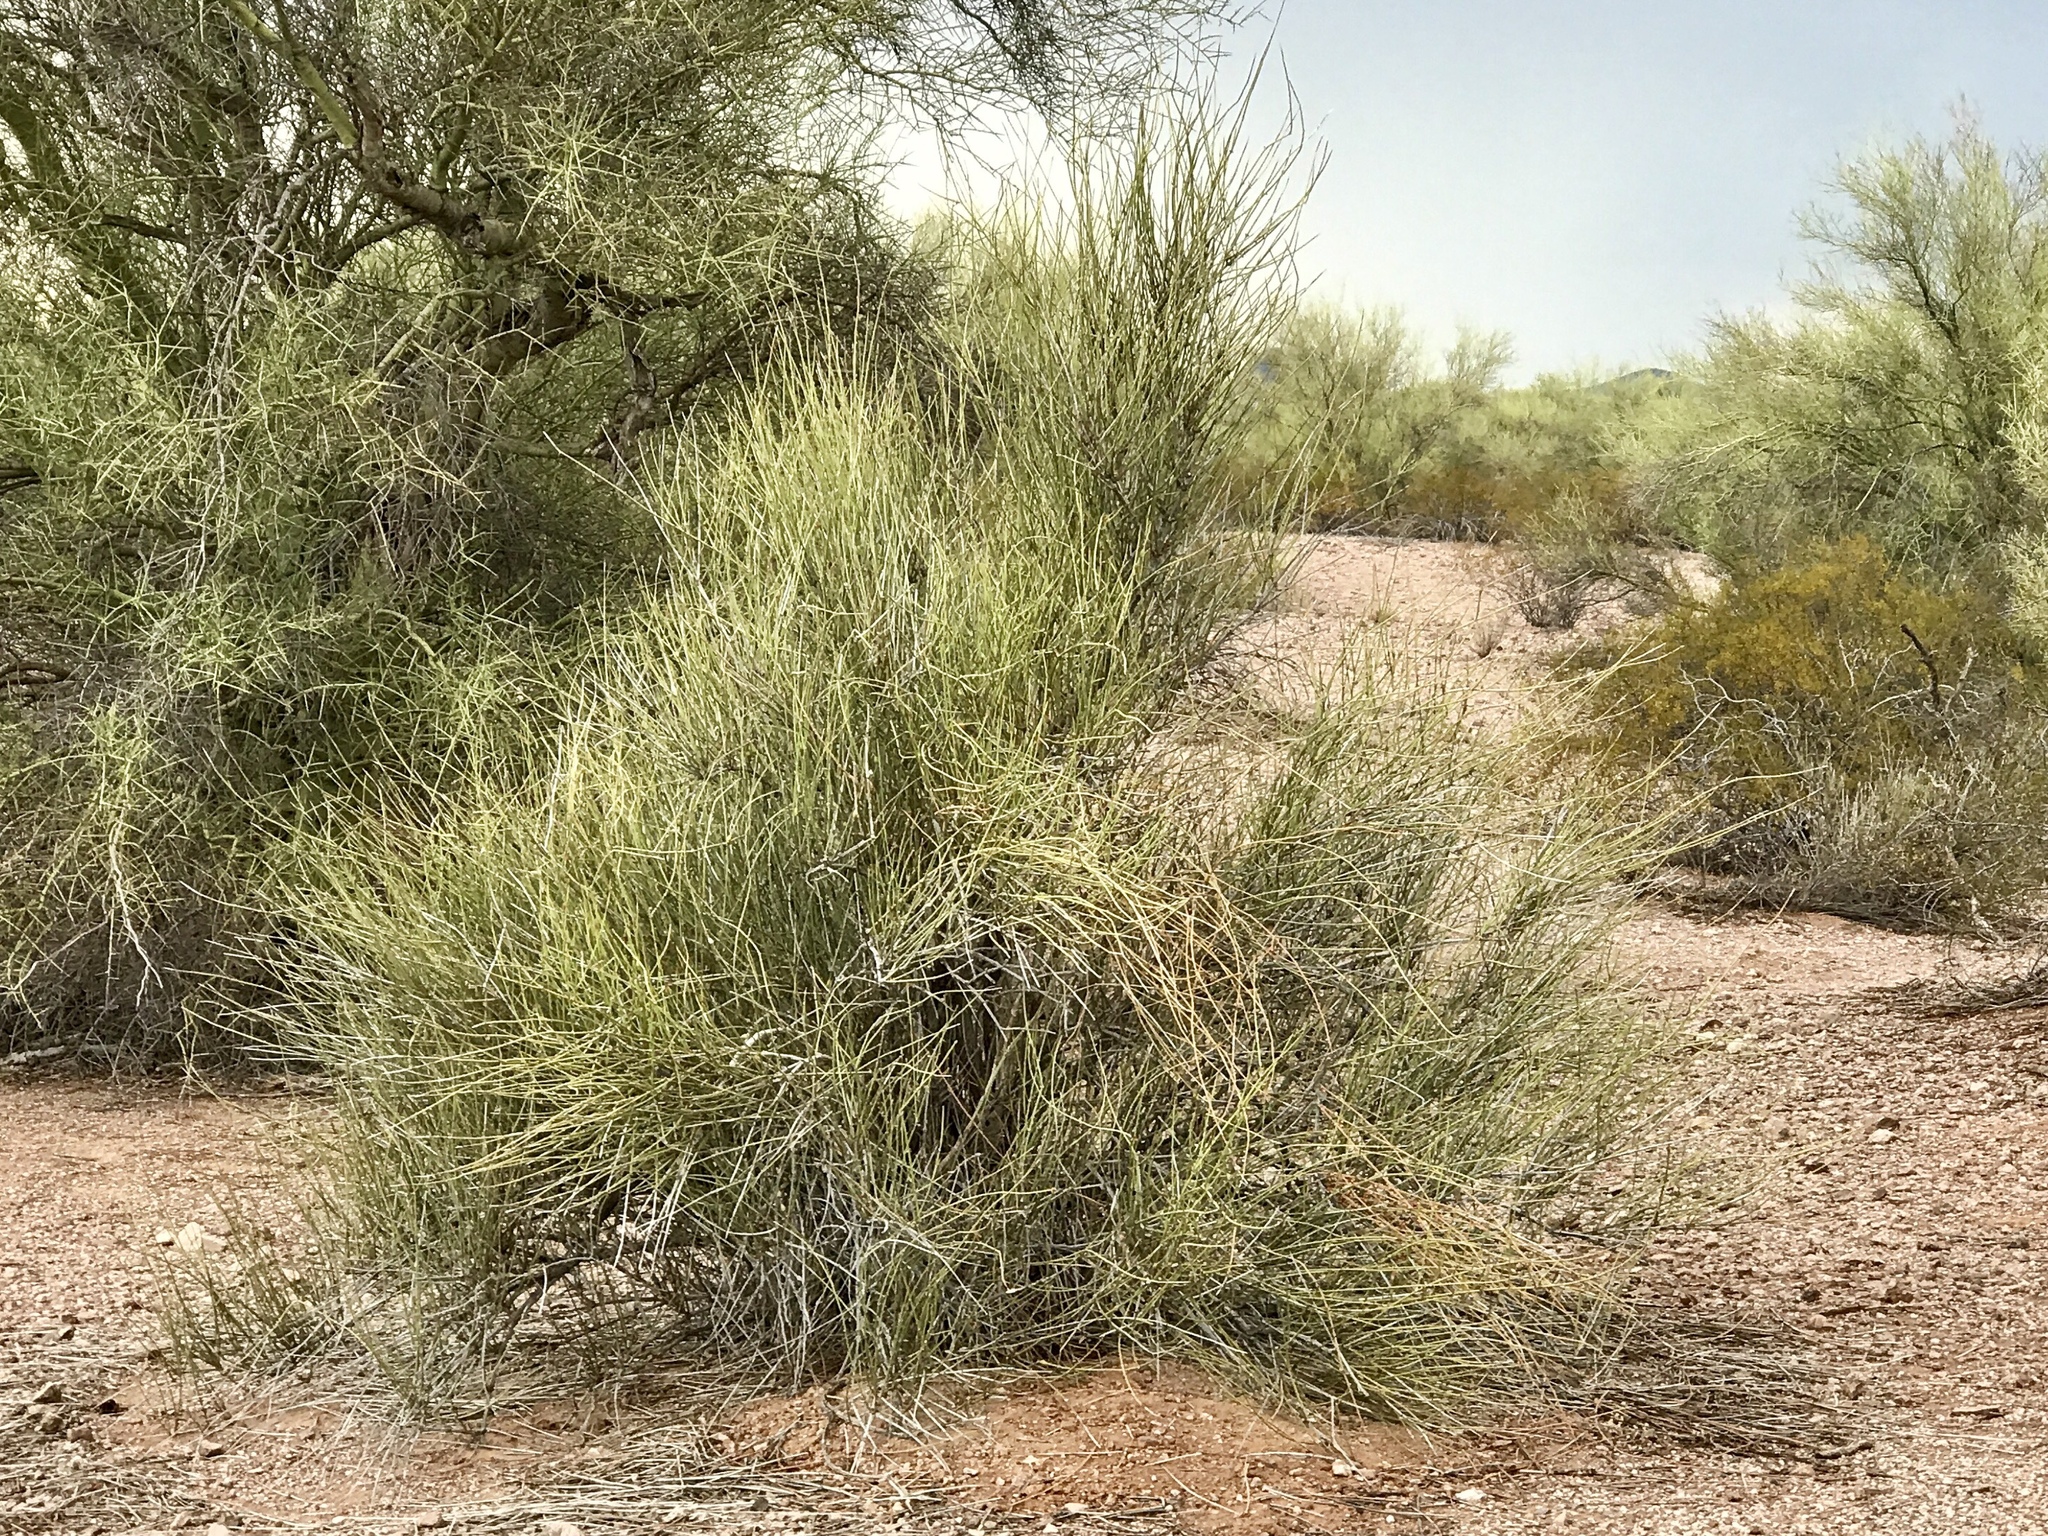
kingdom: Plantae
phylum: Tracheophyta
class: Gnetopsida
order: Ephedrales
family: Ephedraceae
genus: Ephedra
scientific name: Ephedra trifurca
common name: Mexican-tea
